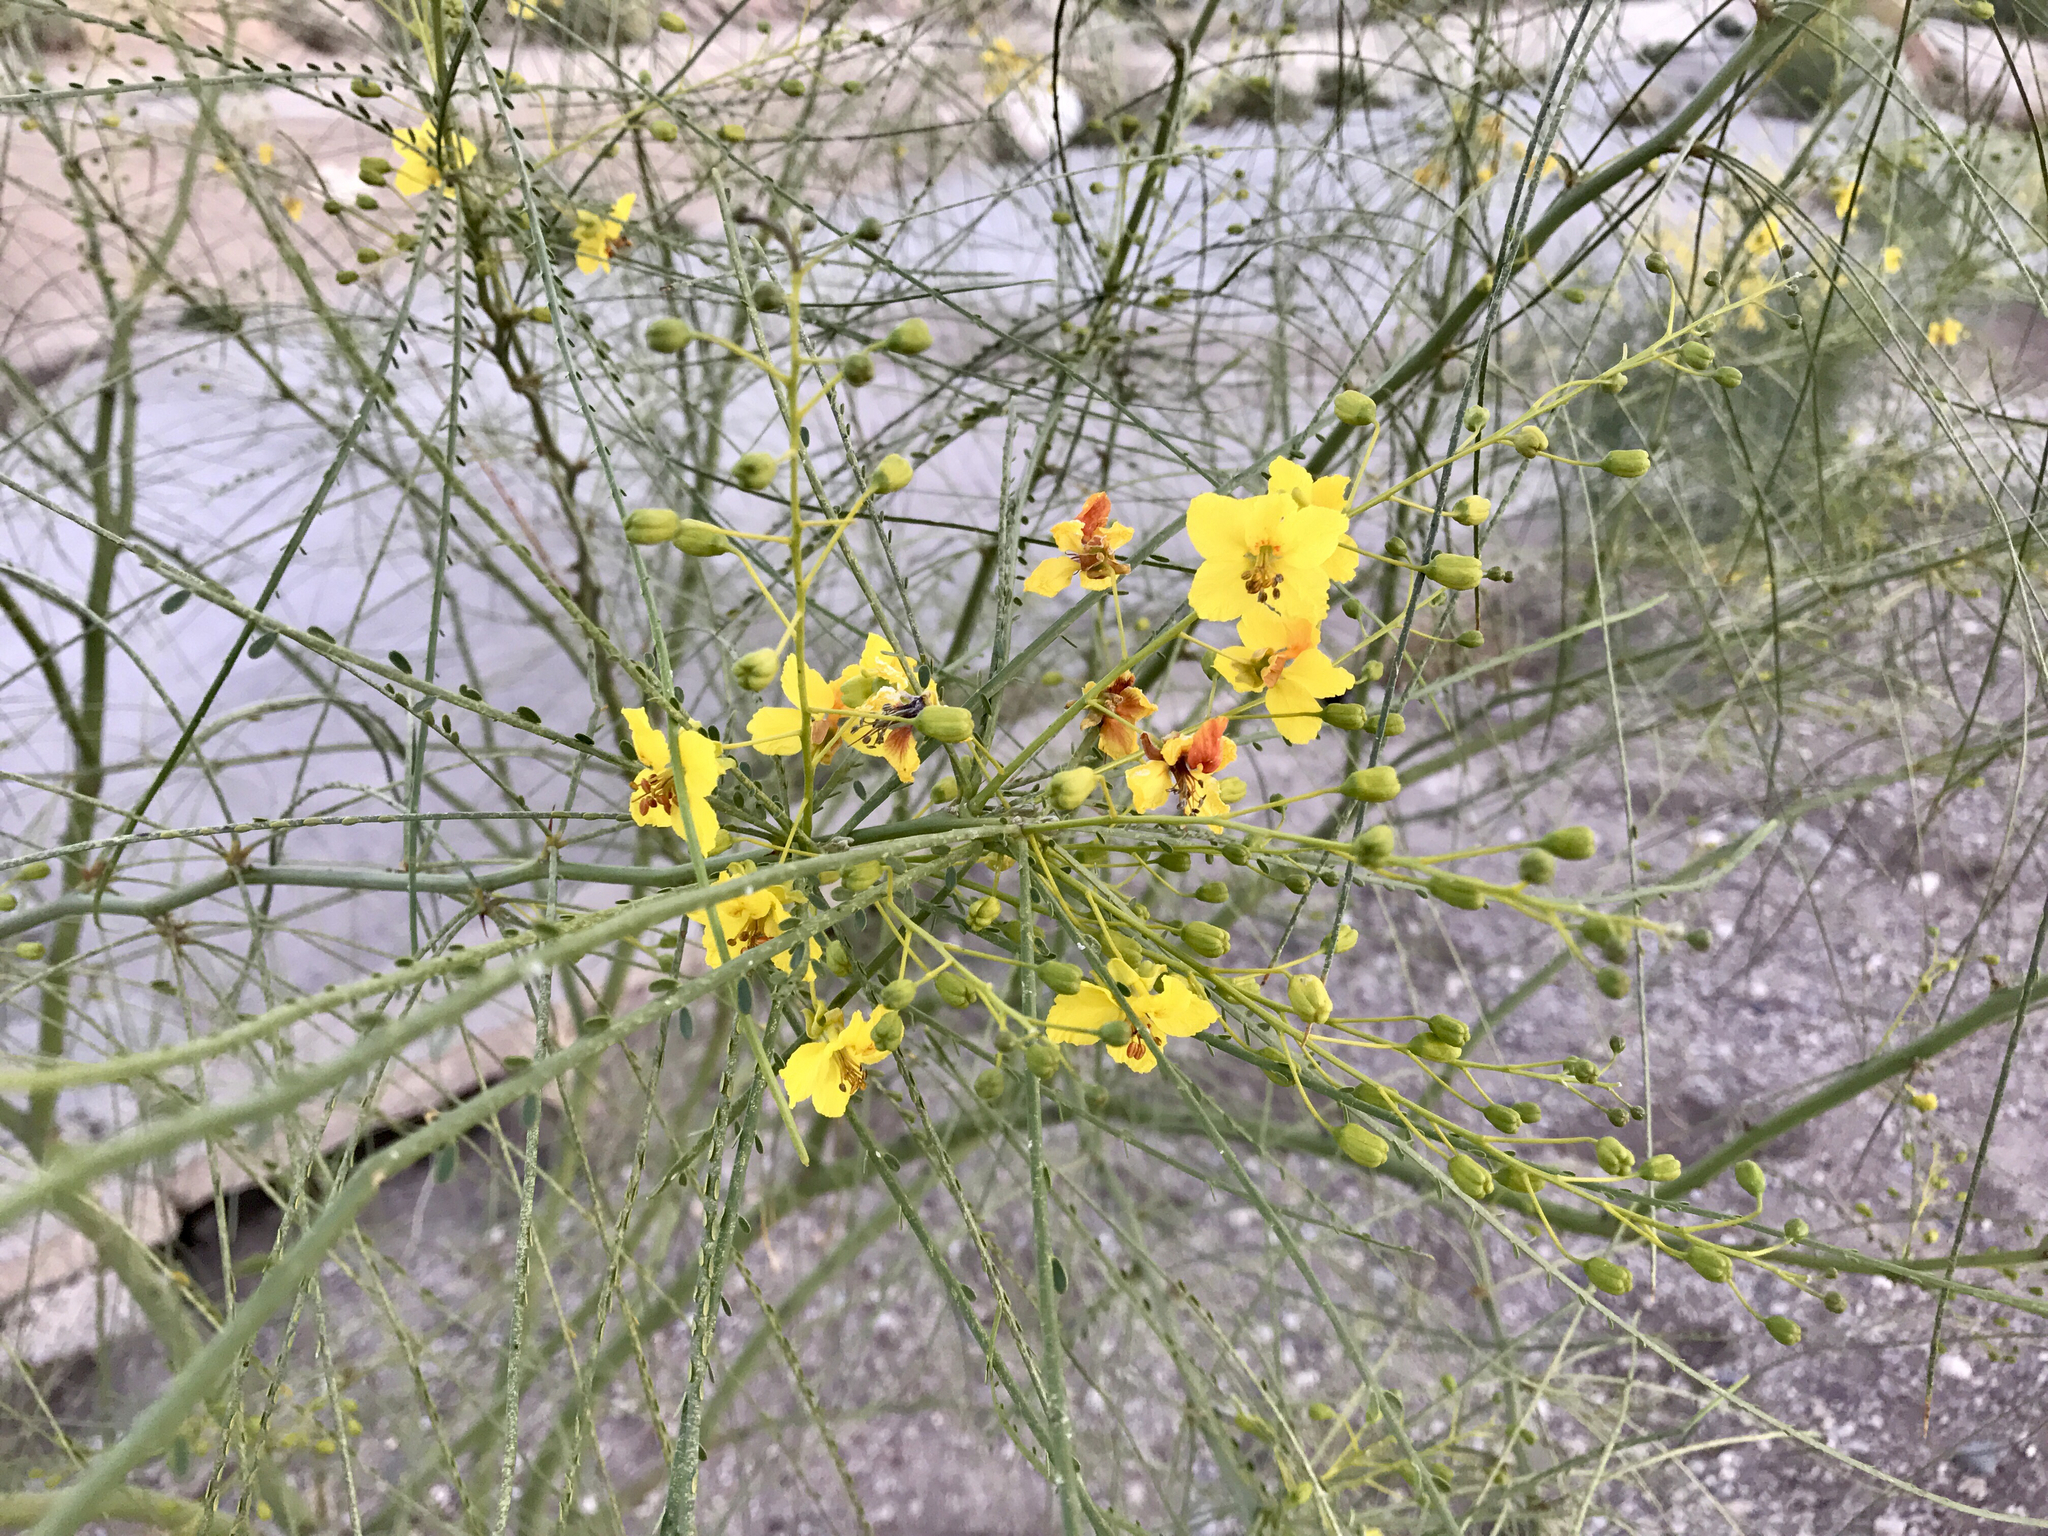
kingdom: Plantae
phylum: Tracheophyta
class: Magnoliopsida
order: Fabales
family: Fabaceae
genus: Parkinsonia
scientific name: Parkinsonia aculeata
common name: Jerusalem thorn
